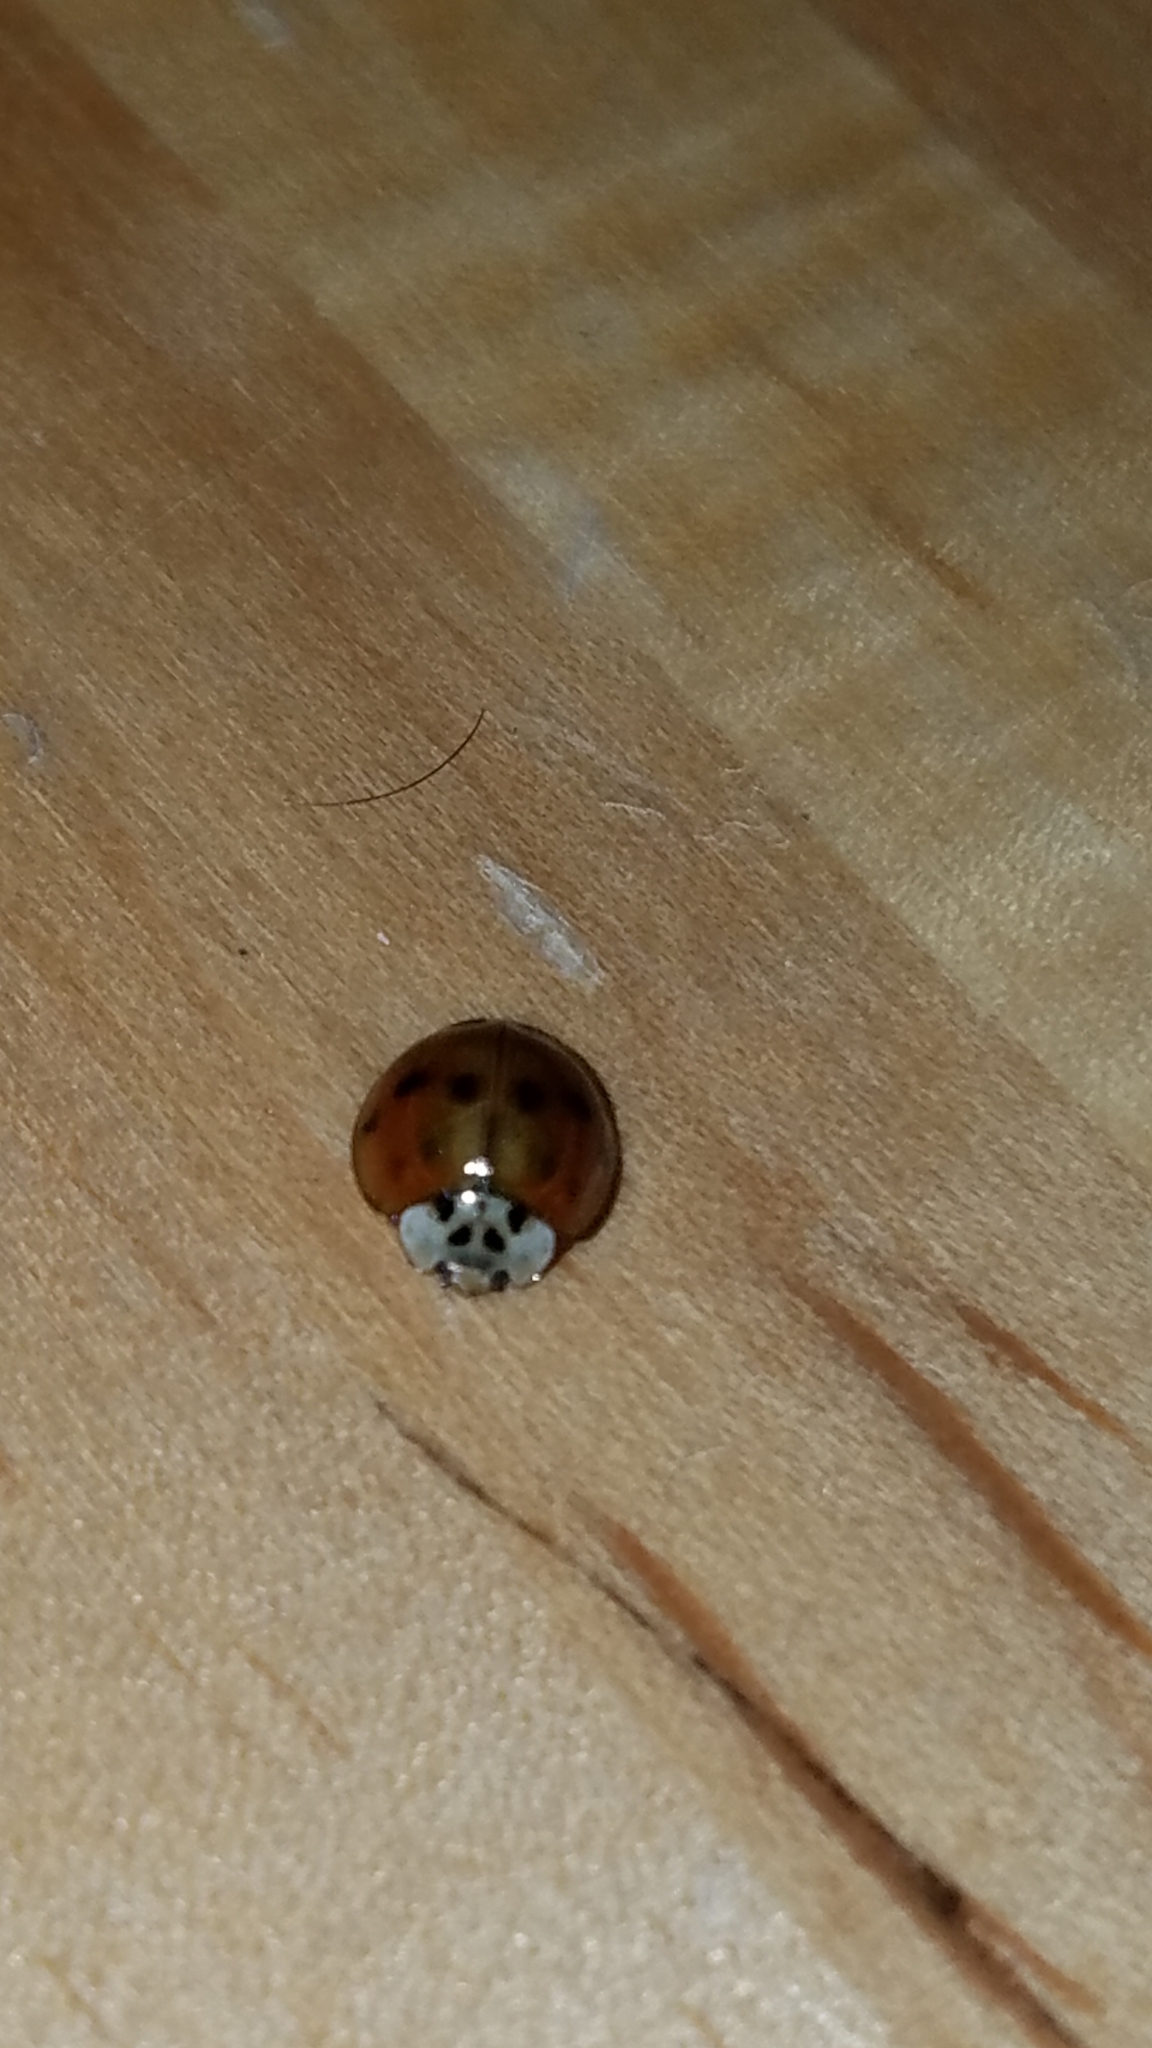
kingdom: Animalia
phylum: Arthropoda
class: Insecta
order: Coleoptera
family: Coccinellidae
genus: Harmonia
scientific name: Harmonia axyridis
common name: Harlequin ladybird
